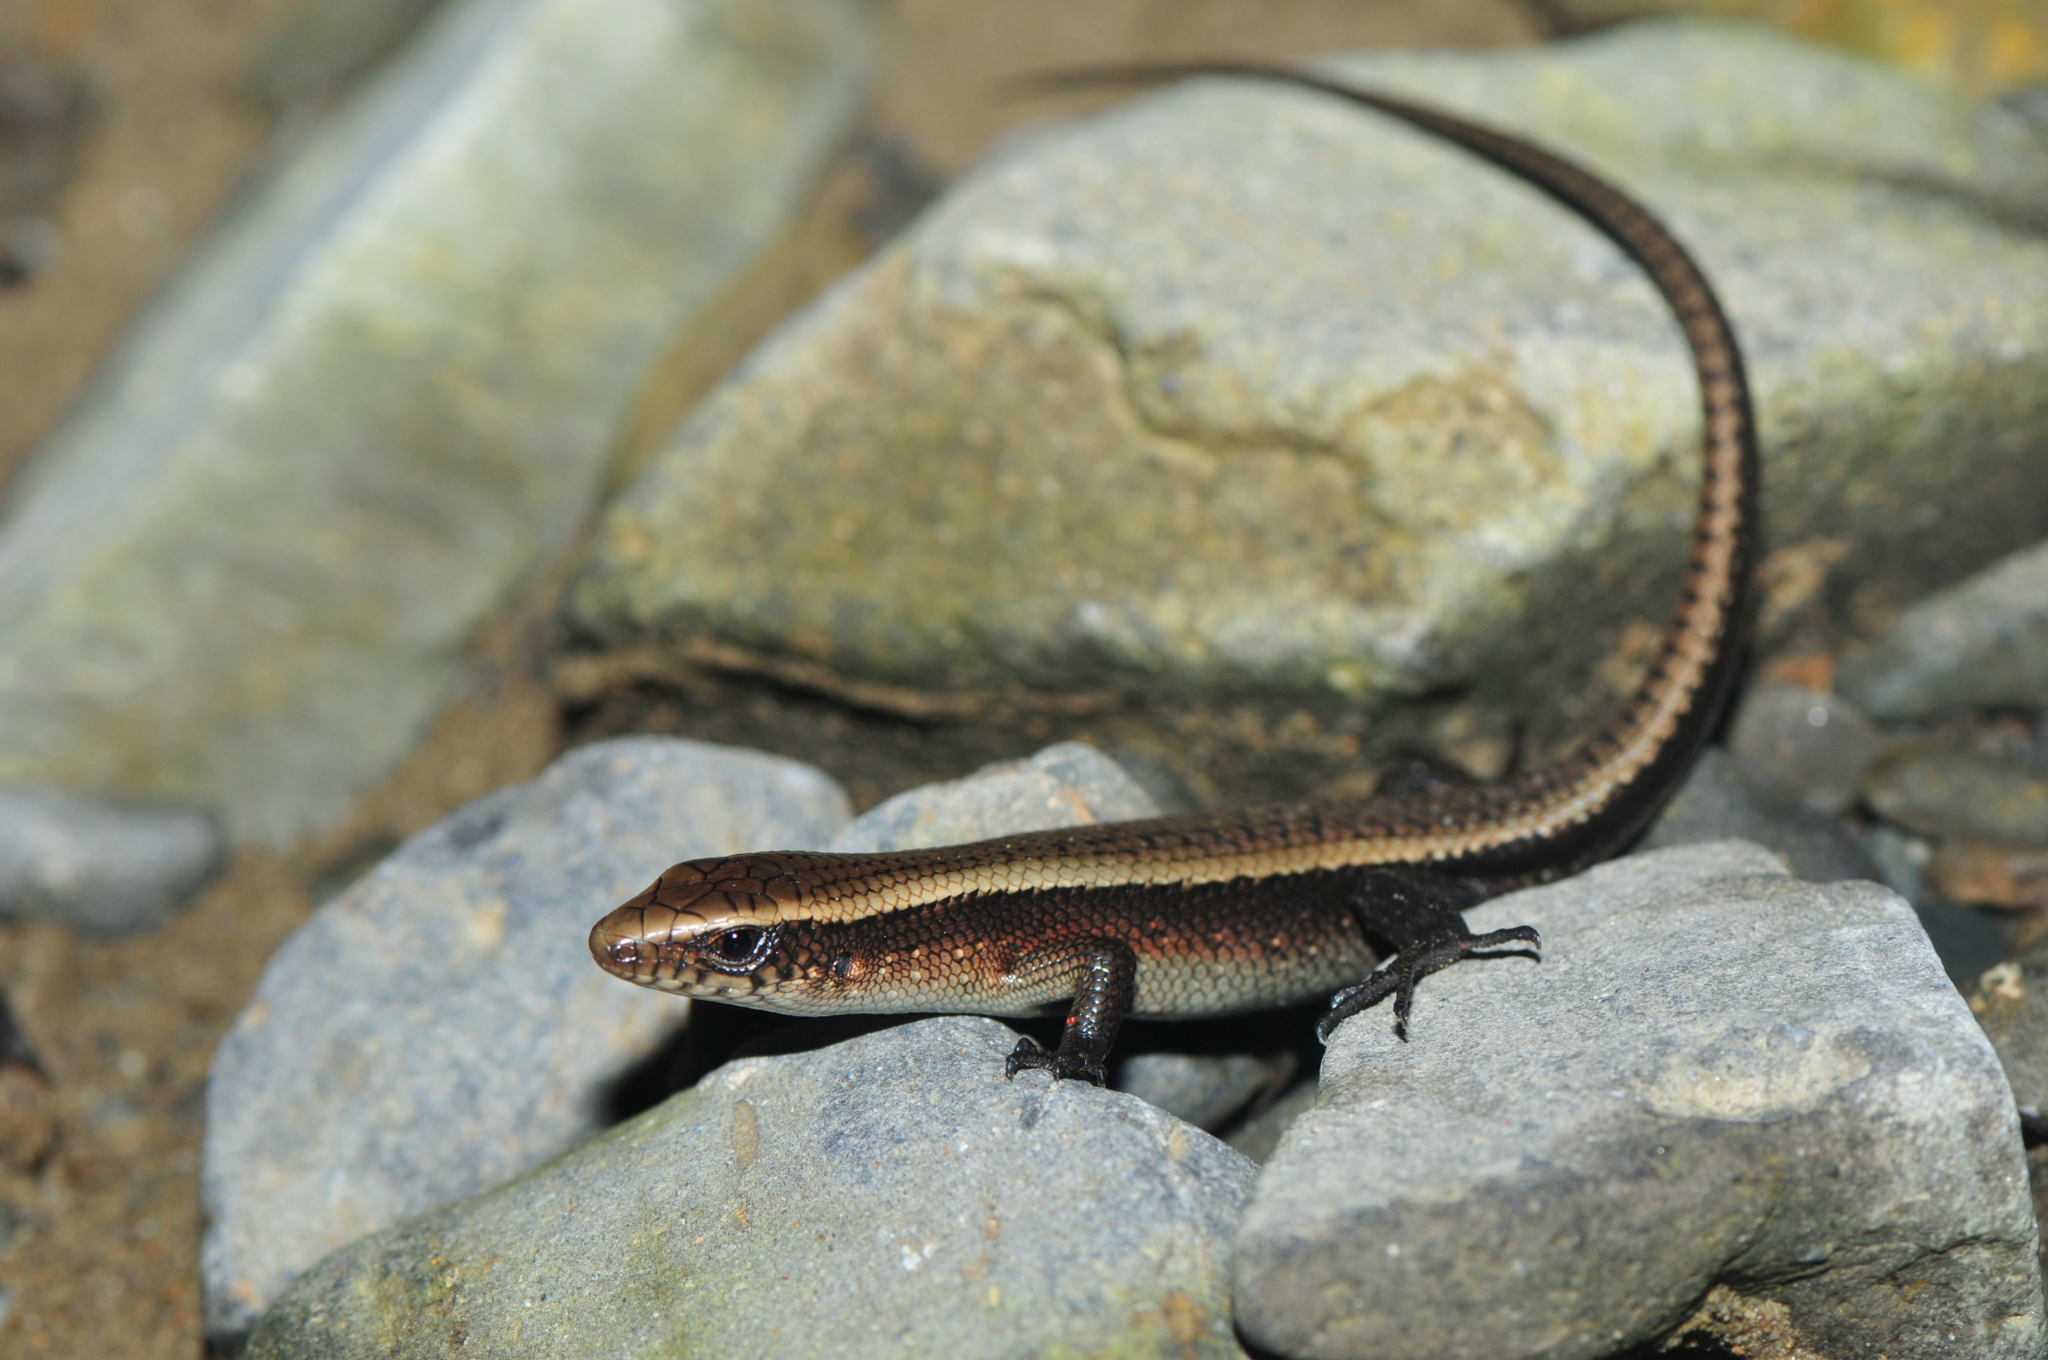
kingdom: Animalia
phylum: Chordata
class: Squamata
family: Scincidae
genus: Eutropis
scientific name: Eutropis multifasciata
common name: Common mabuya
